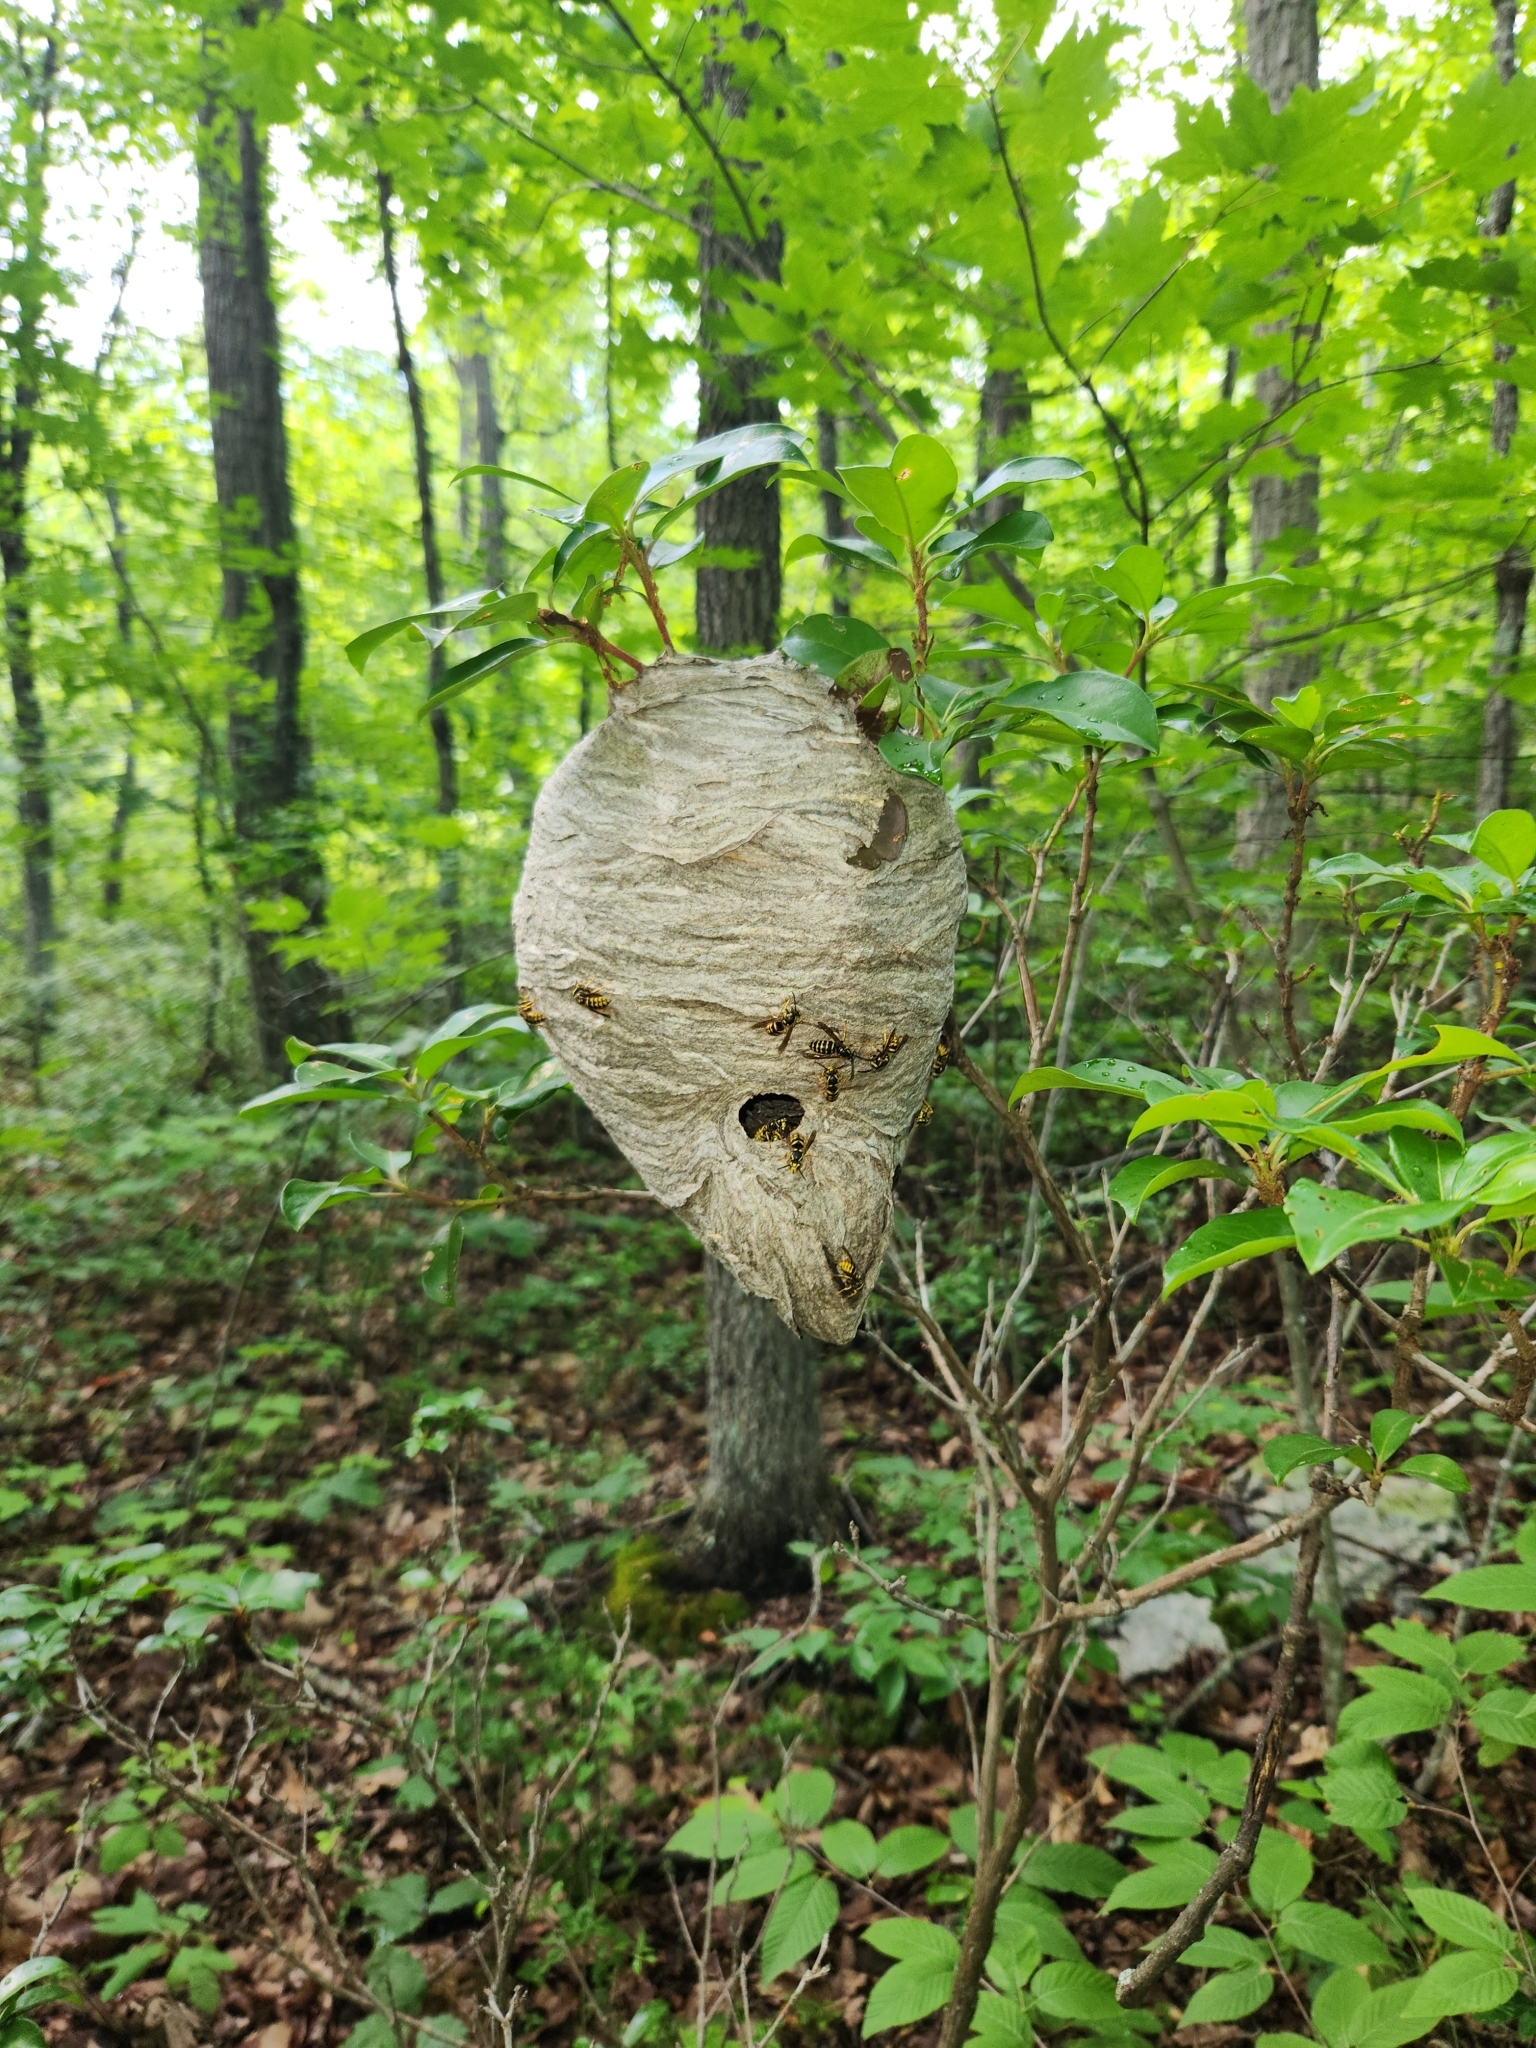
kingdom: Animalia
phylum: Arthropoda
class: Insecta
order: Hymenoptera
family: Vespidae
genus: Dolichovespula
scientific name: Dolichovespula arenaria
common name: Aerial yellowjacket
